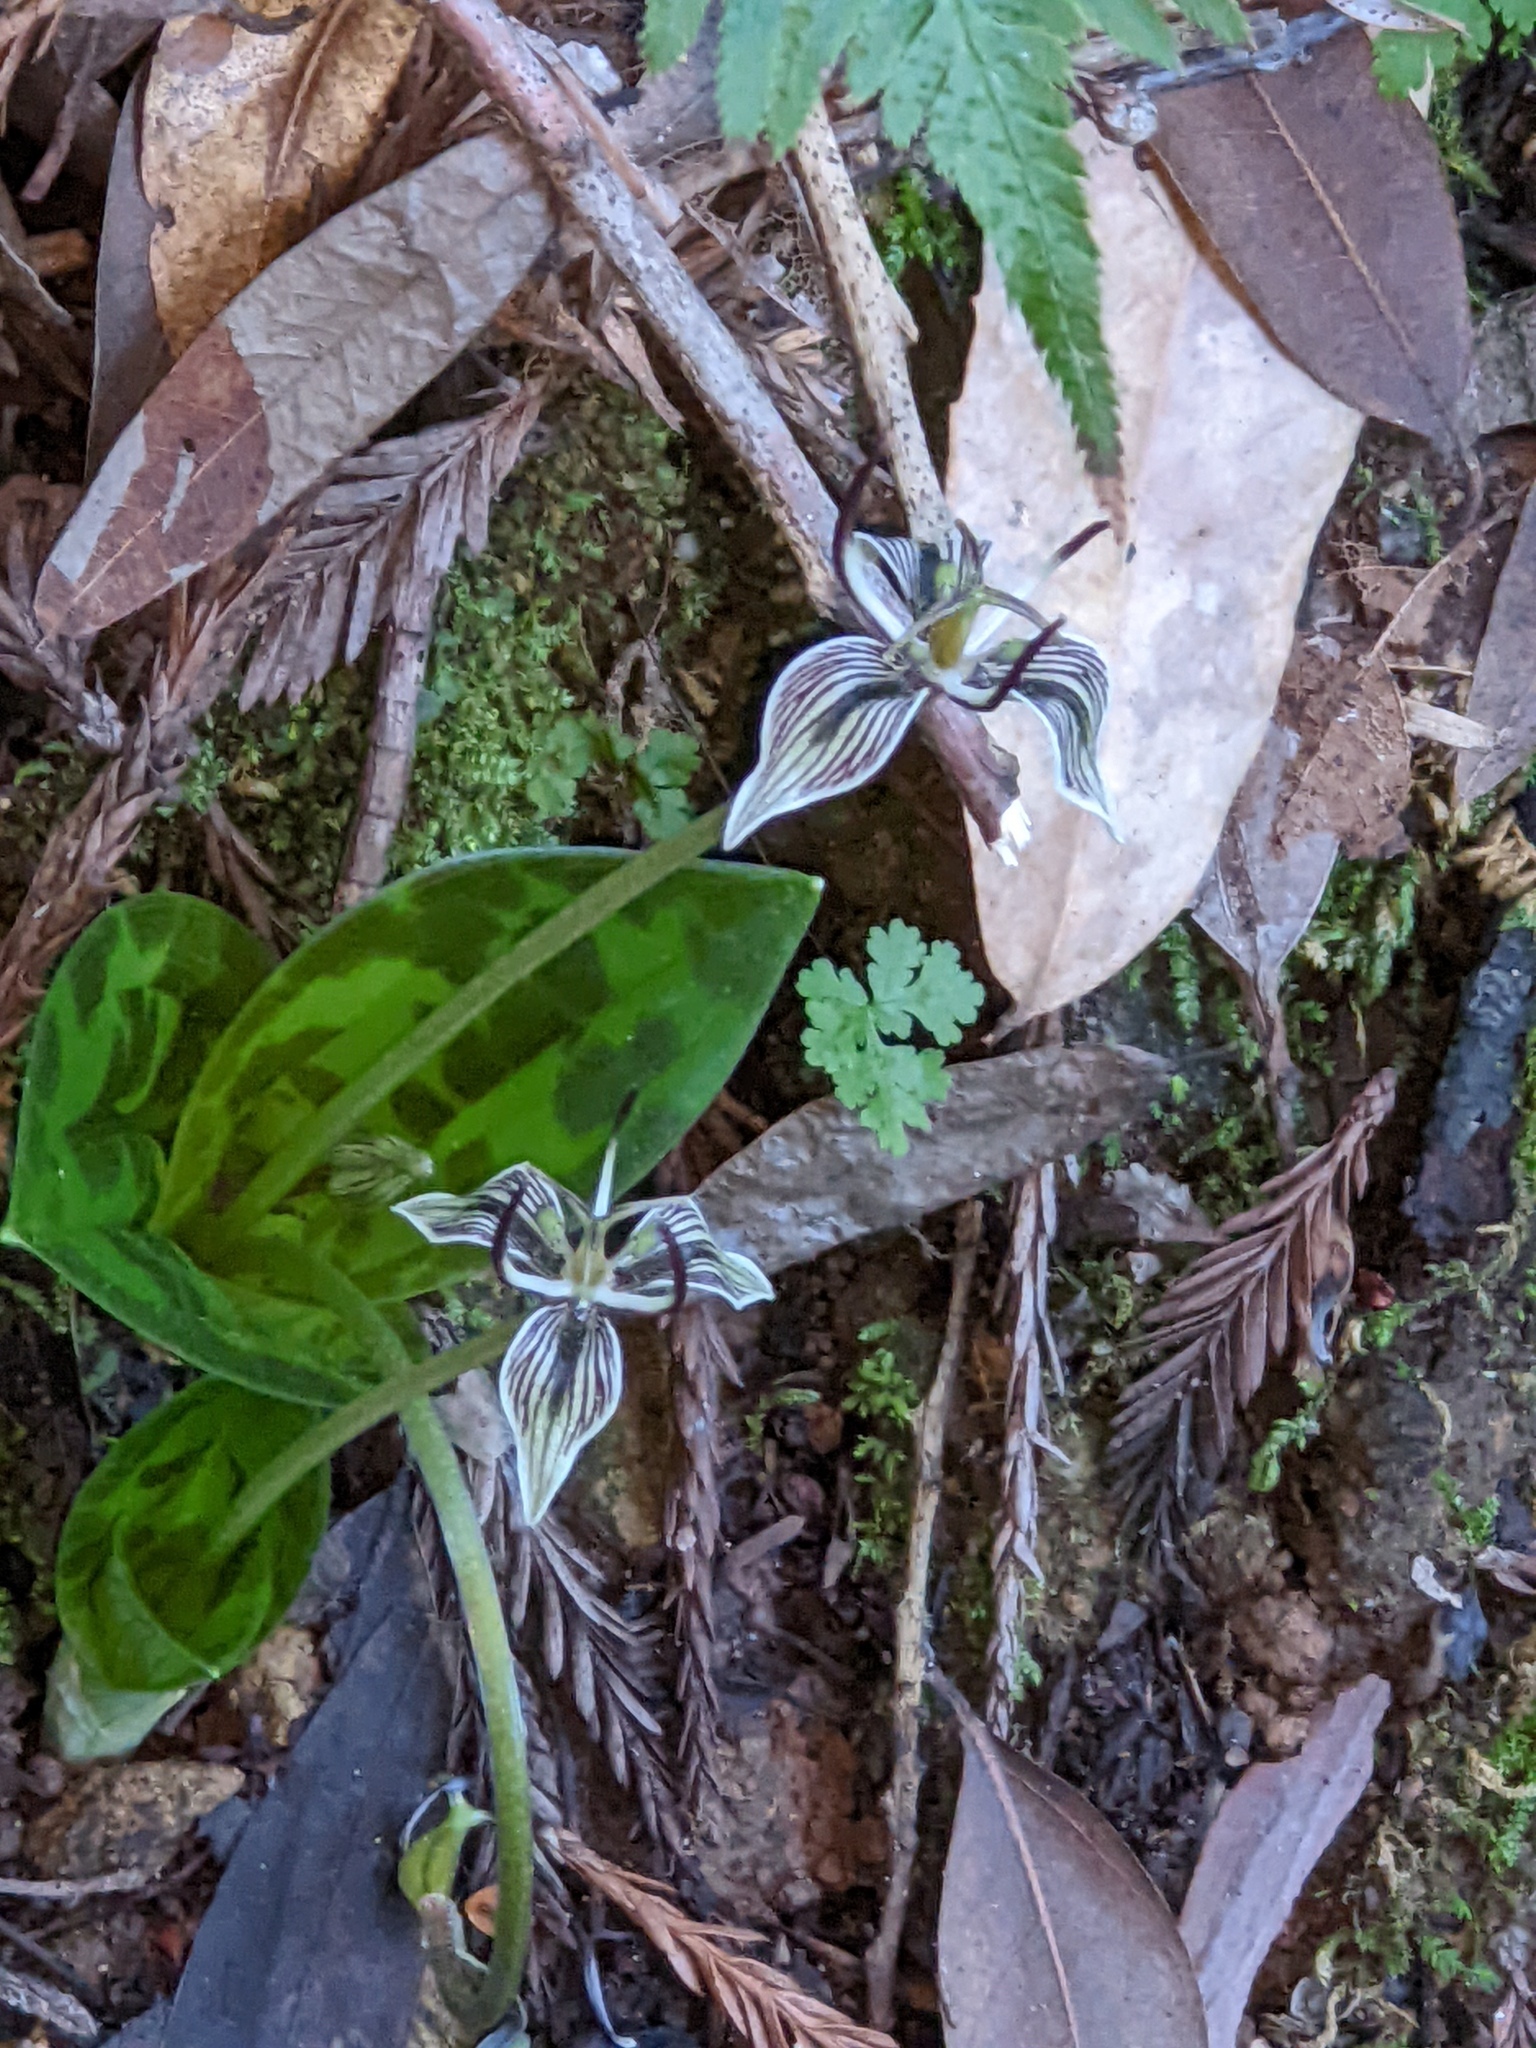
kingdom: Plantae
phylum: Tracheophyta
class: Liliopsida
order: Liliales
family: Liliaceae
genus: Scoliopus
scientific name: Scoliopus bigelovii
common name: Foetid adder's-tongue
